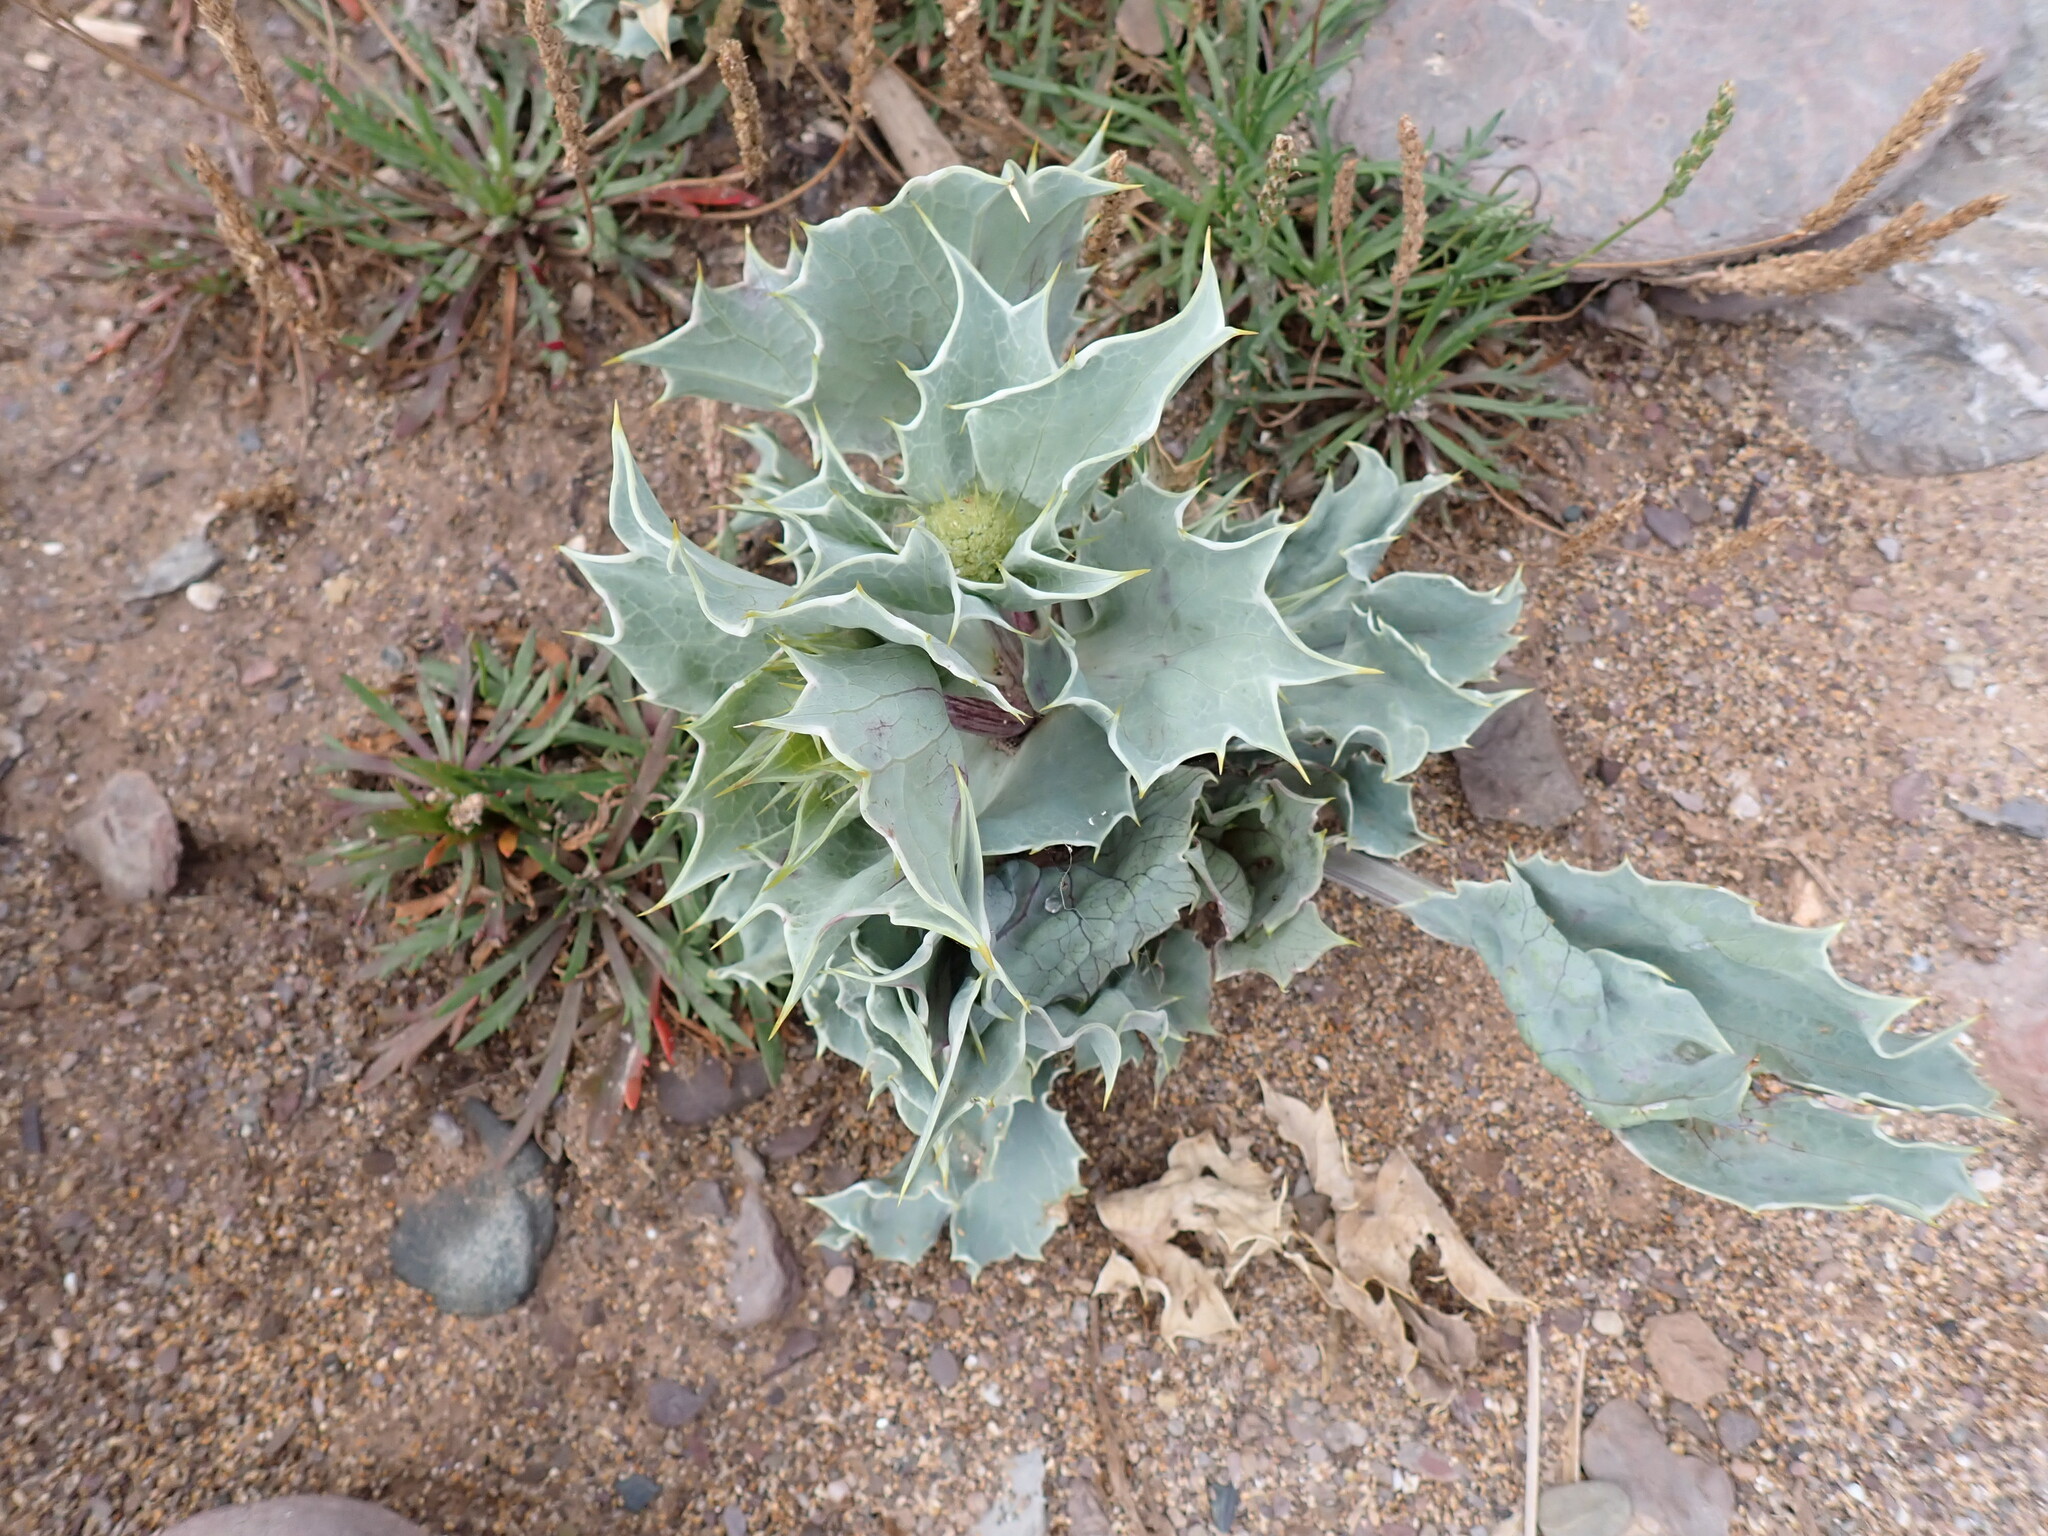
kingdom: Plantae
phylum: Tracheophyta
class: Magnoliopsida
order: Apiales
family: Apiaceae
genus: Eryngium
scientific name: Eryngium maritimum
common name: Sea-holly
